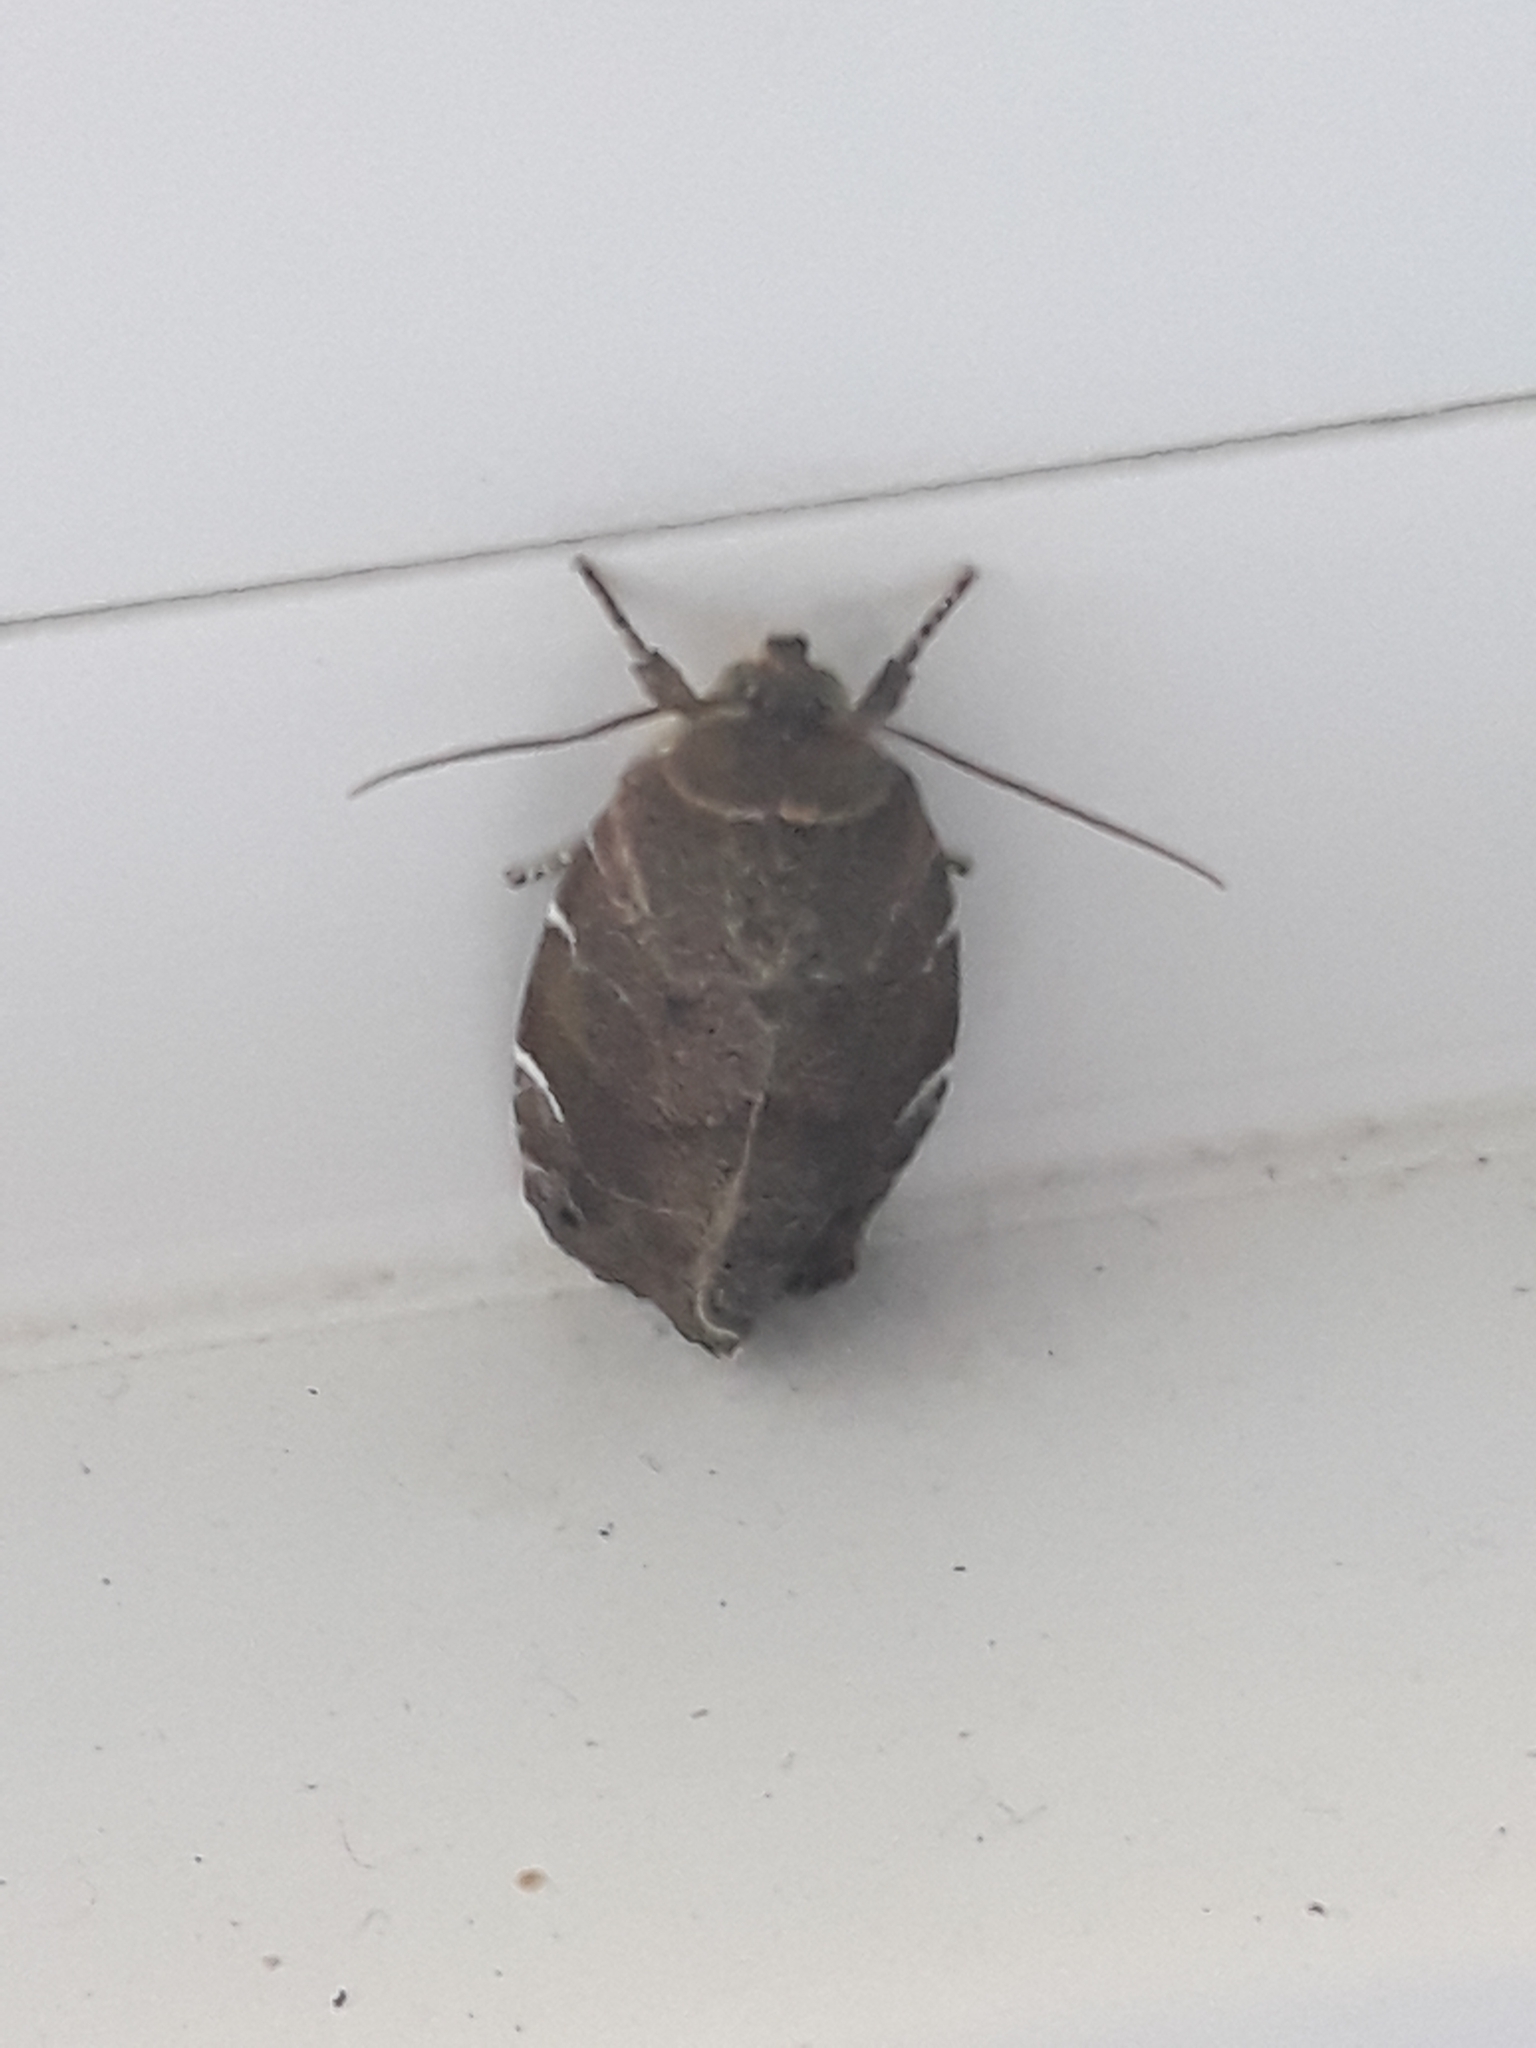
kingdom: Animalia
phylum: Arthropoda
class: Insecta
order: Lepidoptera
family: Noctuidae
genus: Cosmia
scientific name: Cosmia affinis
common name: Lesser-spotted pinion
